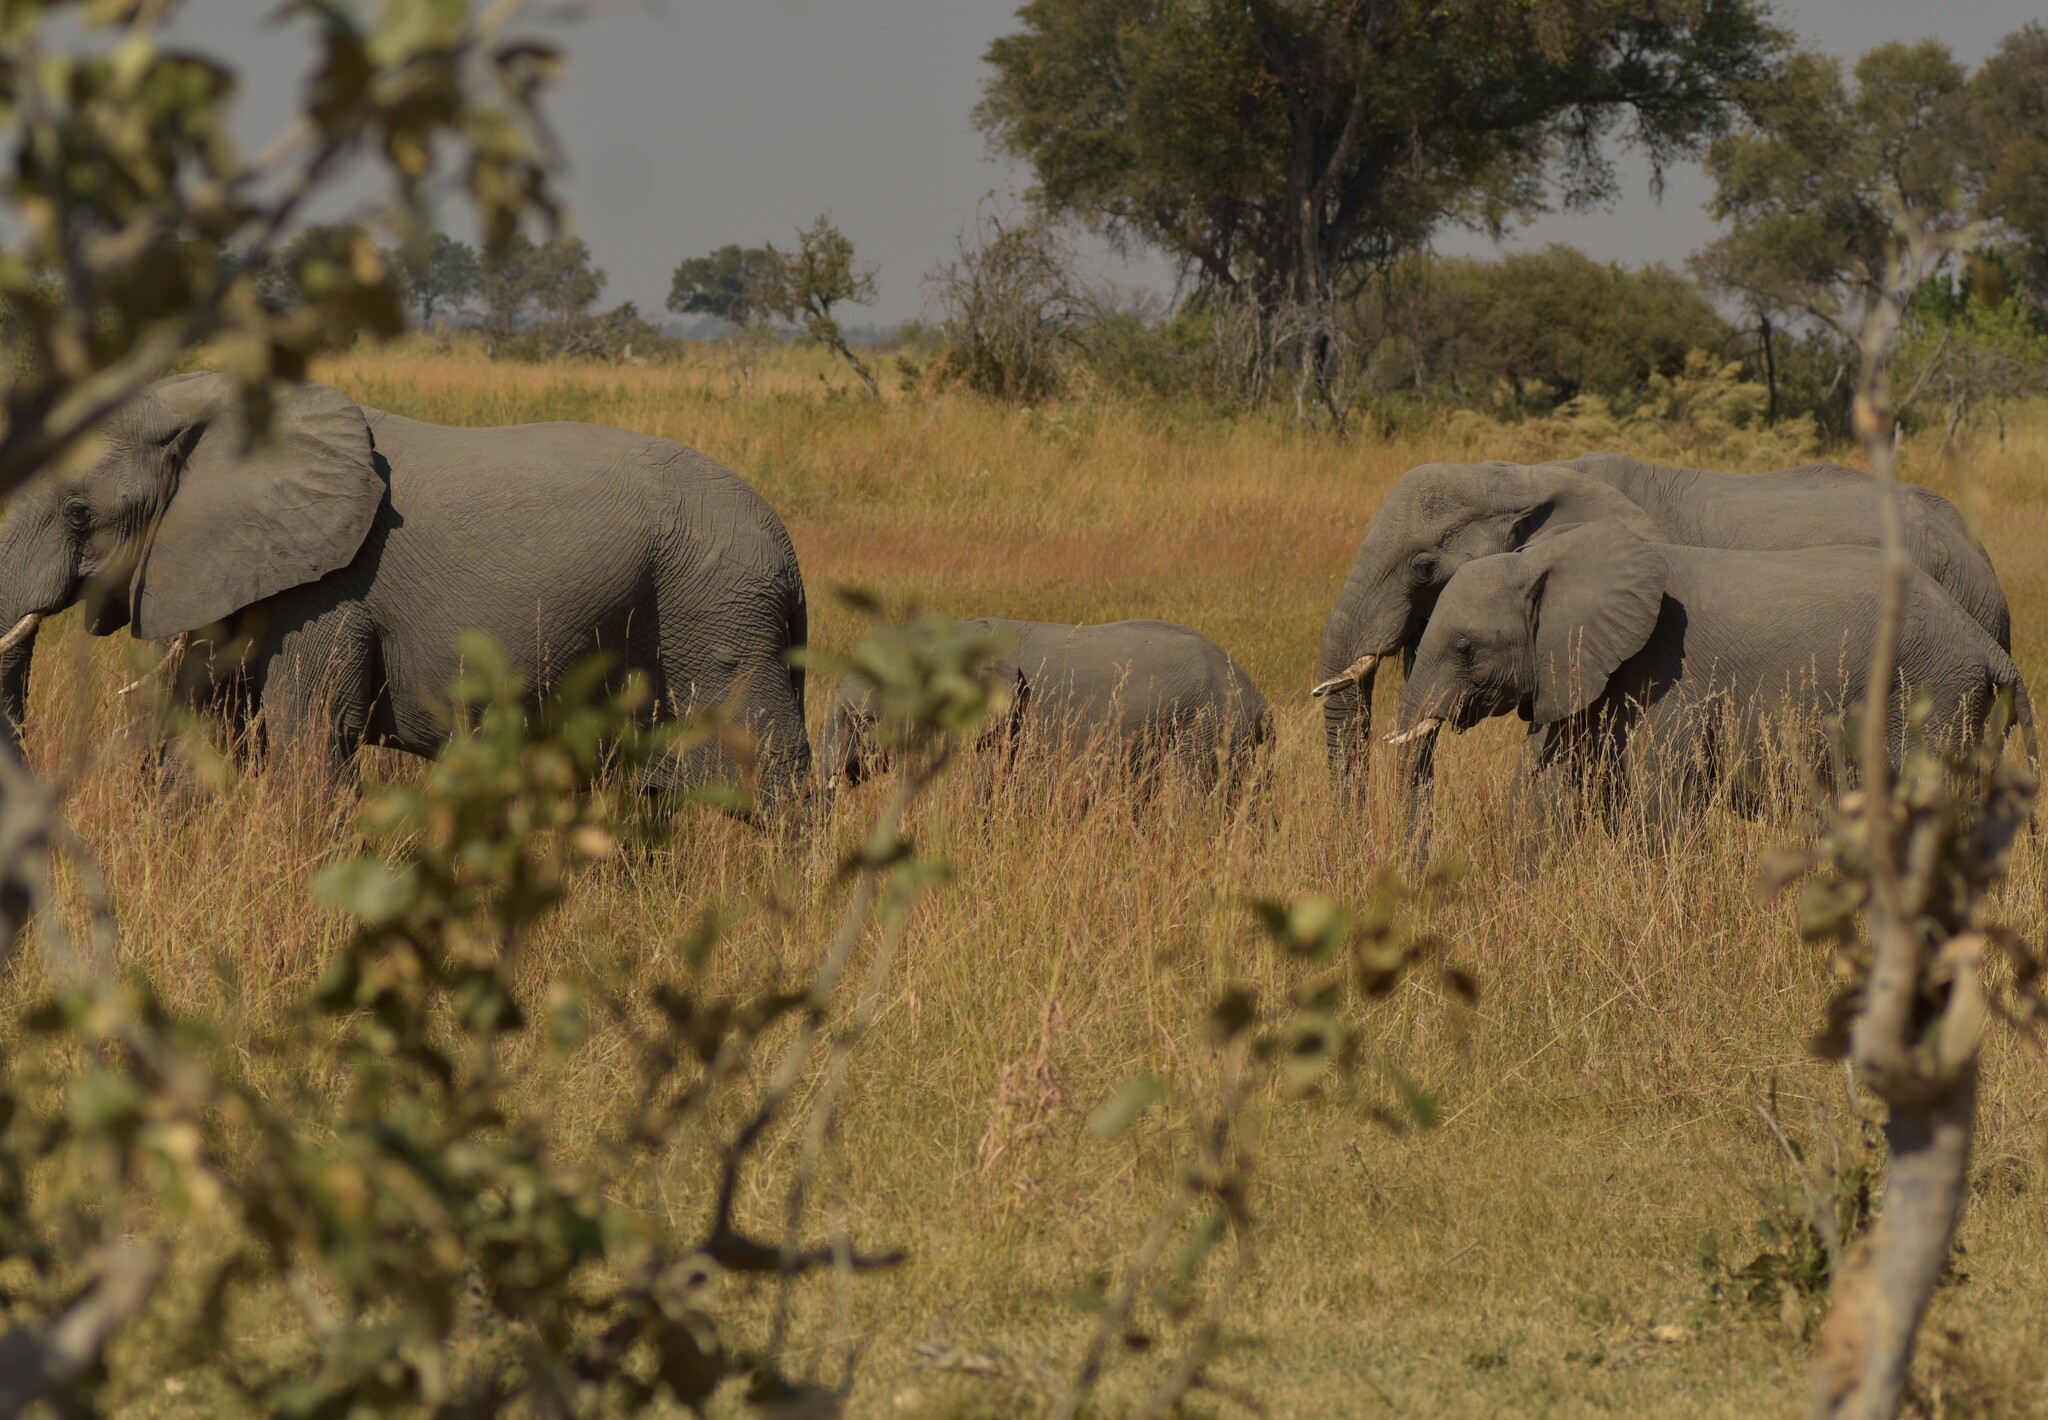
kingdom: Animalia
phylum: Chordata
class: Mammalia
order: Proboscidea
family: Elephantidae
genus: Loxodonta
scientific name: Loxodonta africana
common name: African elephant
